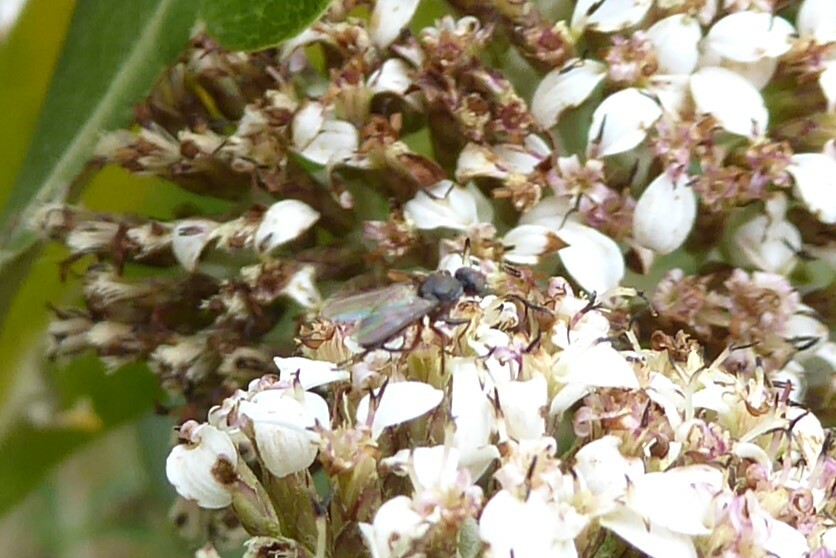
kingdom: Animalia
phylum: Arthropoda
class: Insecta
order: Diptera
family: Sepsidae
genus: Lasionemopoda
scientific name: Lasionemopoda hirsuta
